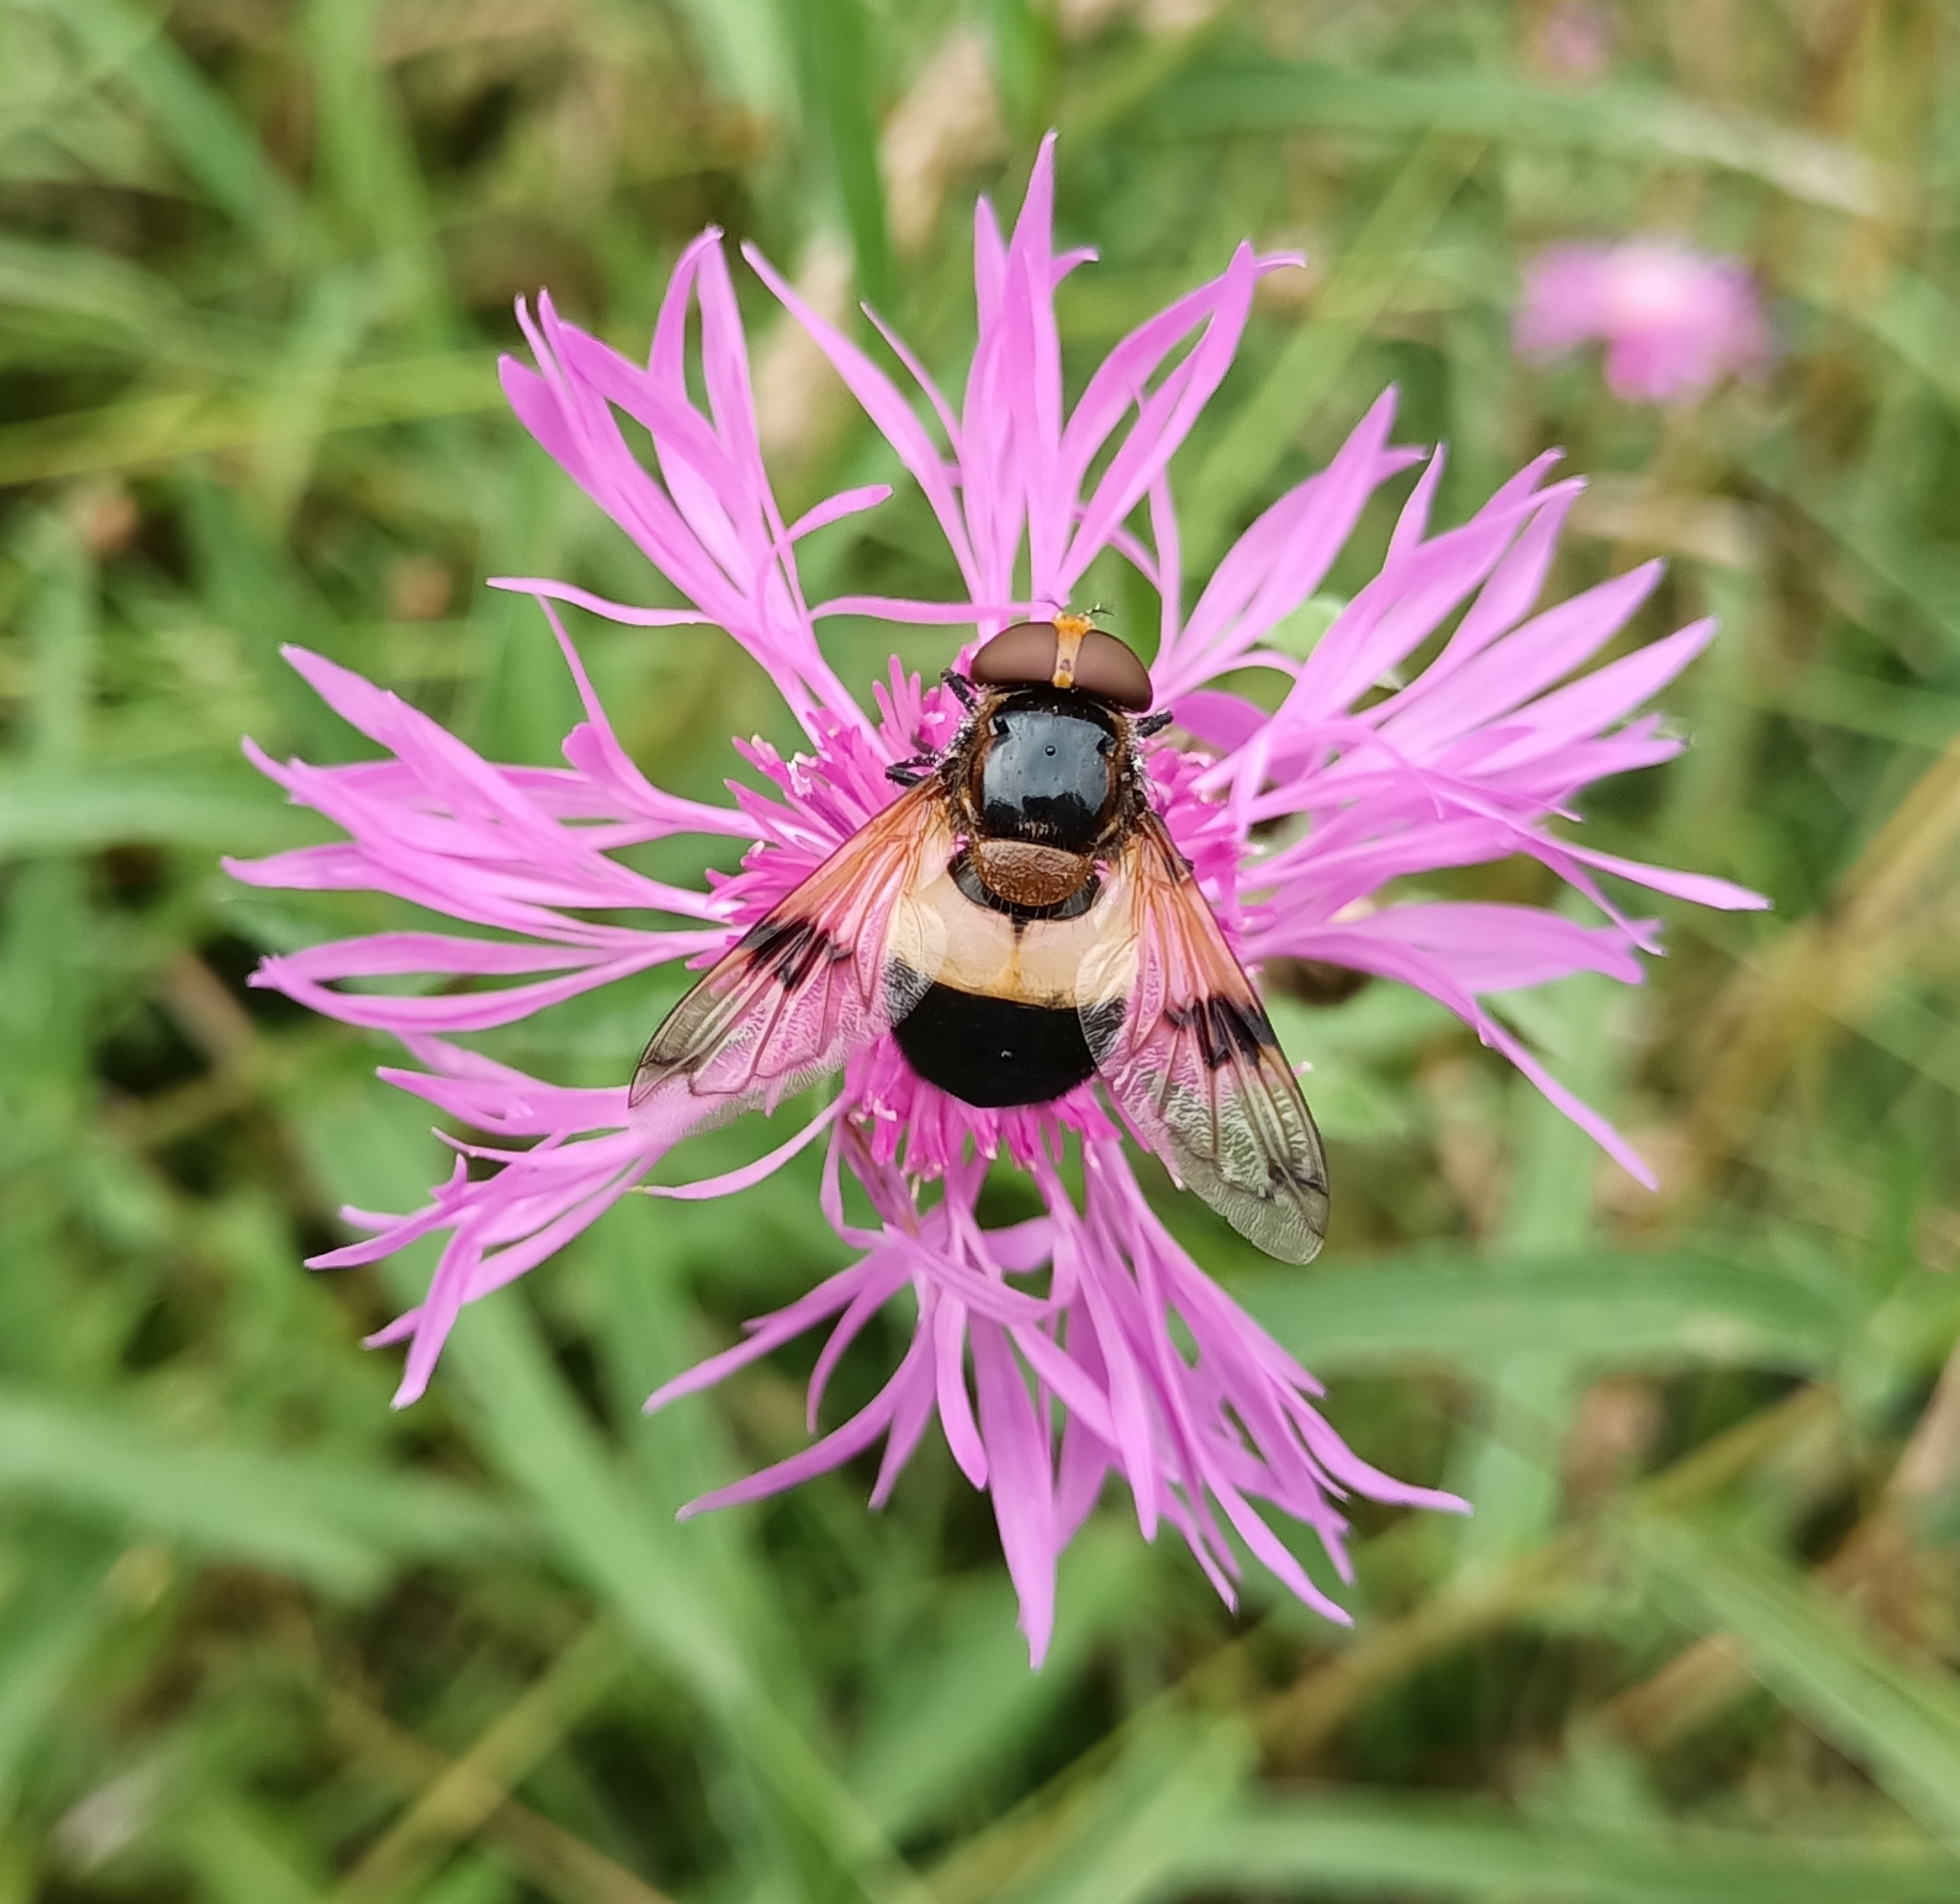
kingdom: Animalia
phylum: Arthropoda
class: Insecta
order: Diptera
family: Syrphidae
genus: Volucella
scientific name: Volucella pellucens
